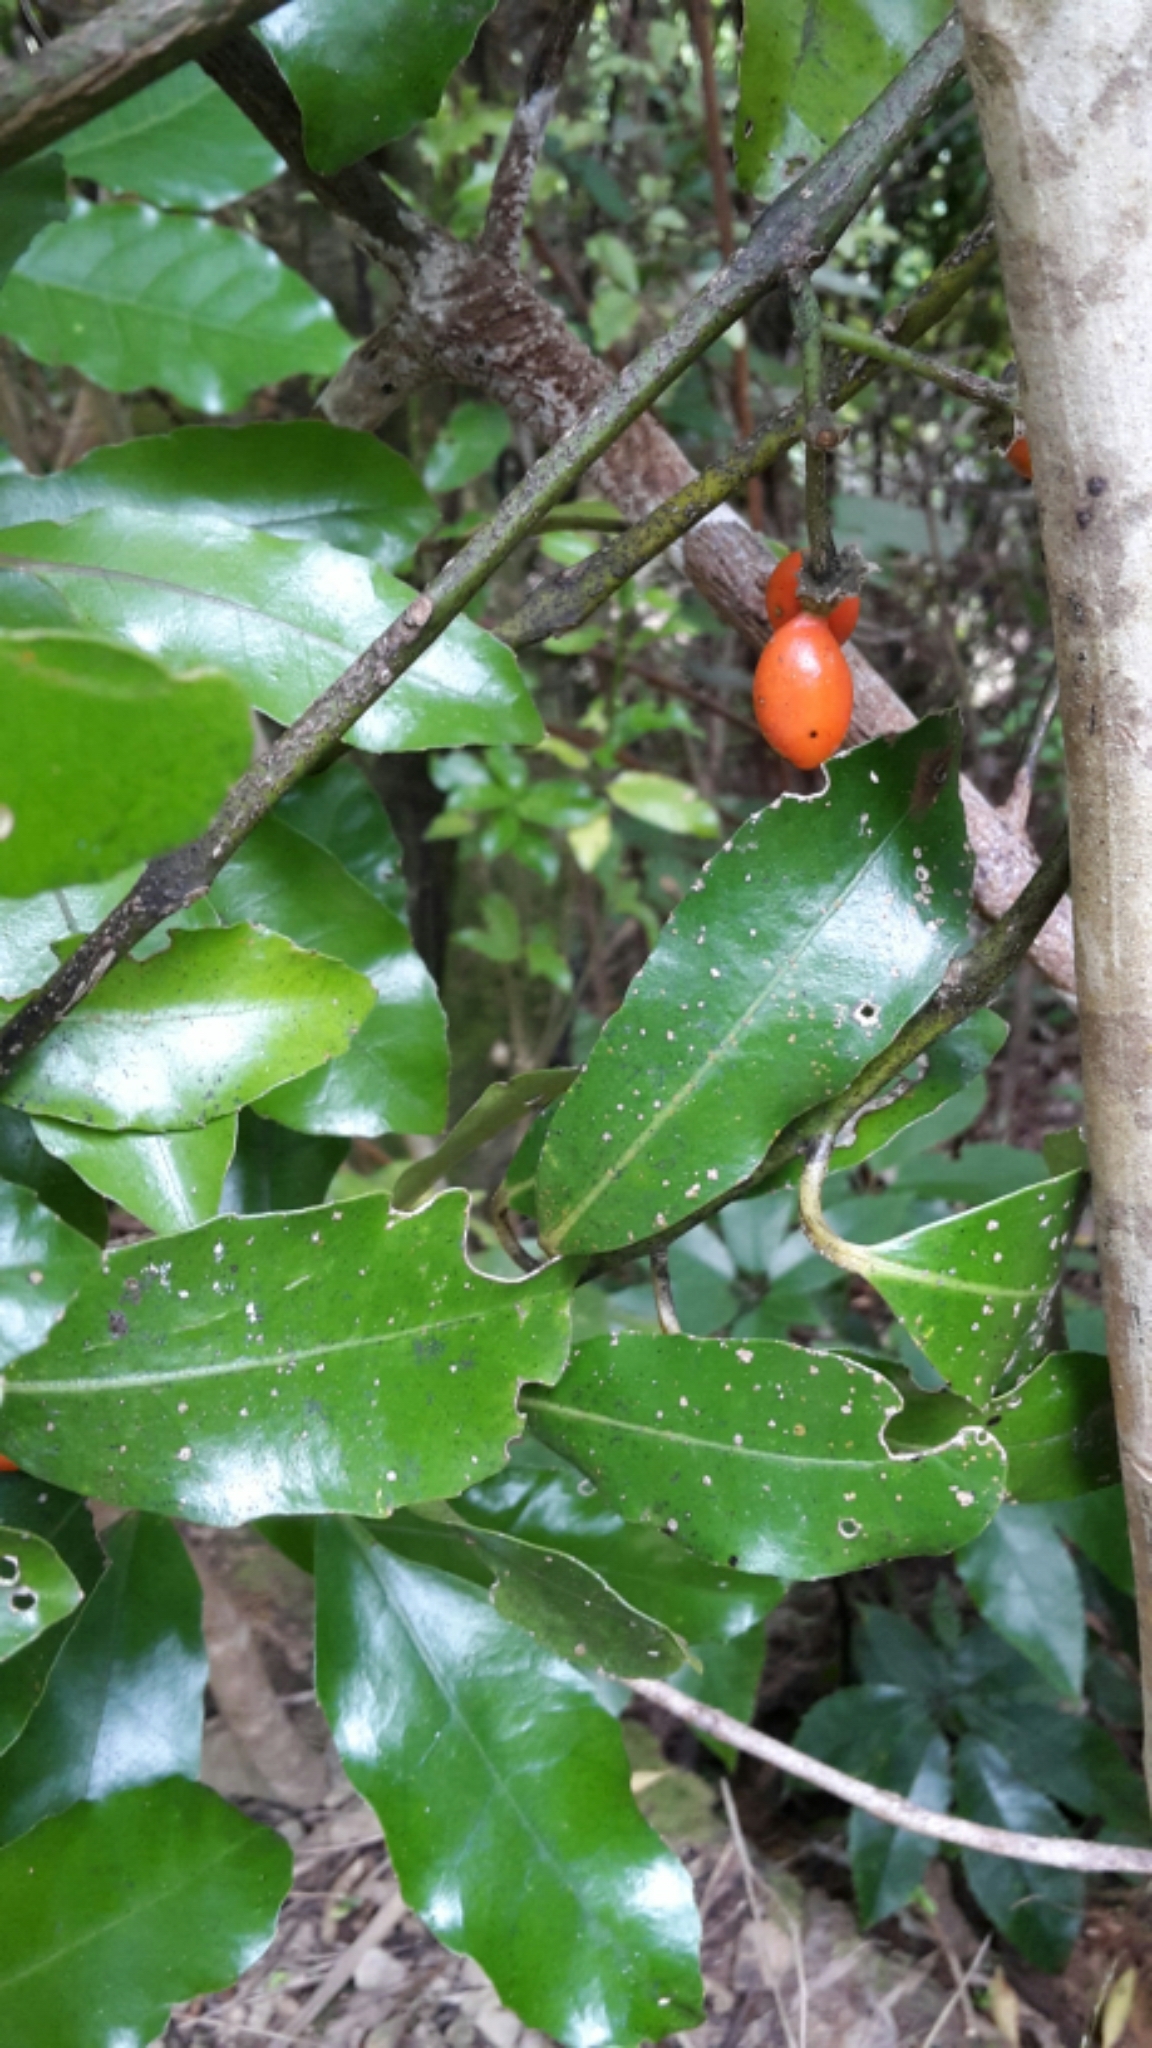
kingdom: Plantae
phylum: Tracheophyta
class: Magnoliopsida
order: Laurales
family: Monimiaceae
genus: Hedycarya
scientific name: Hedycarya arborea
